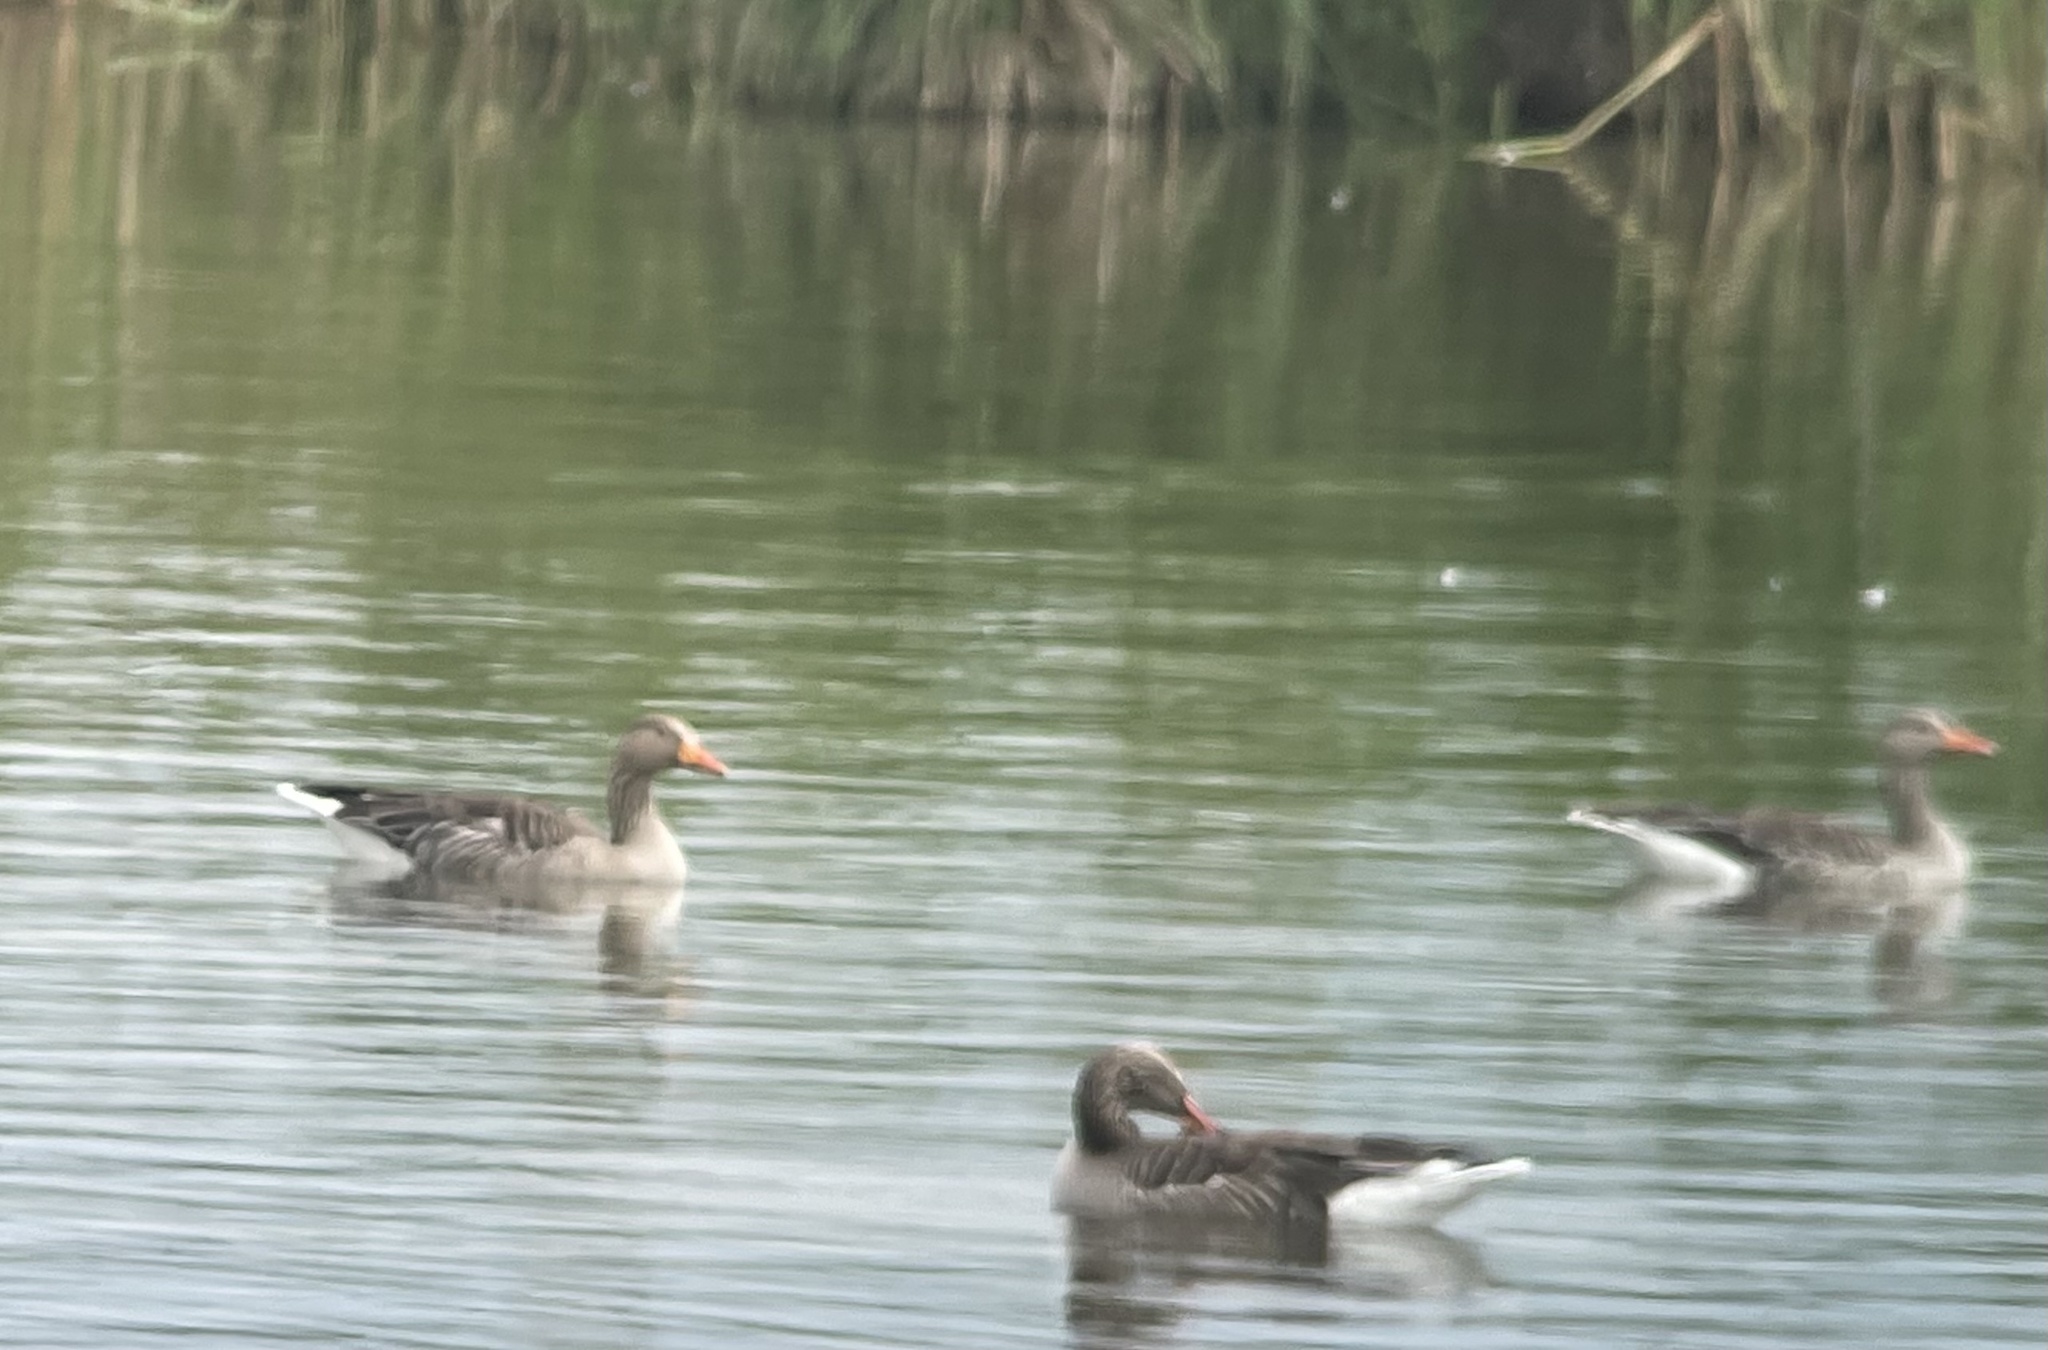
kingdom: Animalia
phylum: Chordata
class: Aves
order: Anseriformes
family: Anatidae
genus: Anser
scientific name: Anser anser
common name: Greylag goose
